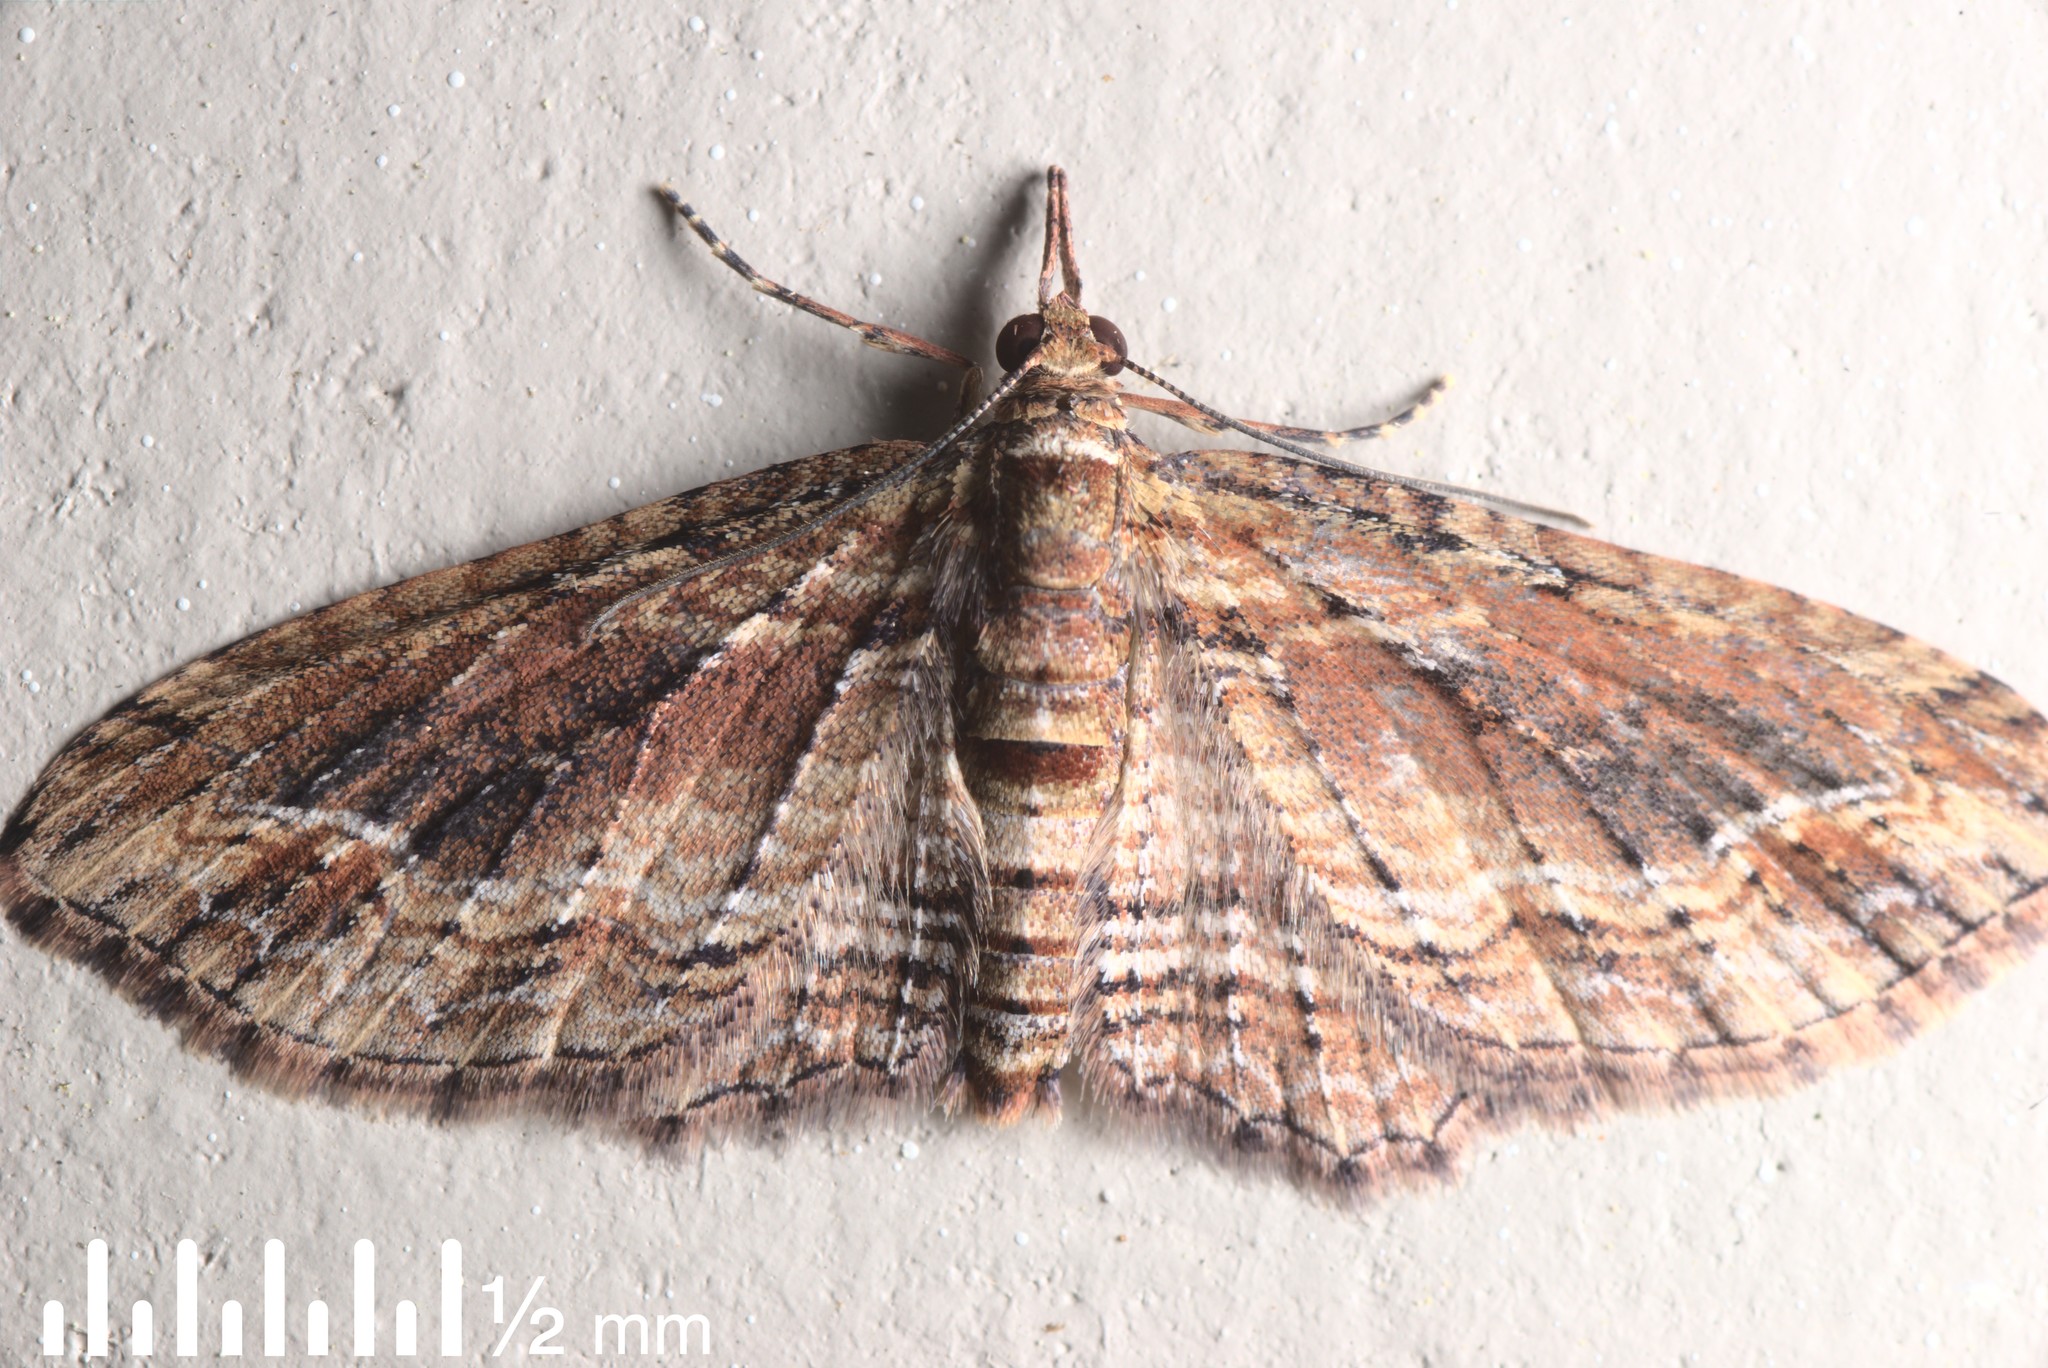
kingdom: Animalia
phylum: Arthropoda
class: Insecta
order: Lepidoptera
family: Geometridae
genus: Chloroclystis
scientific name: Chloroclystis filata
